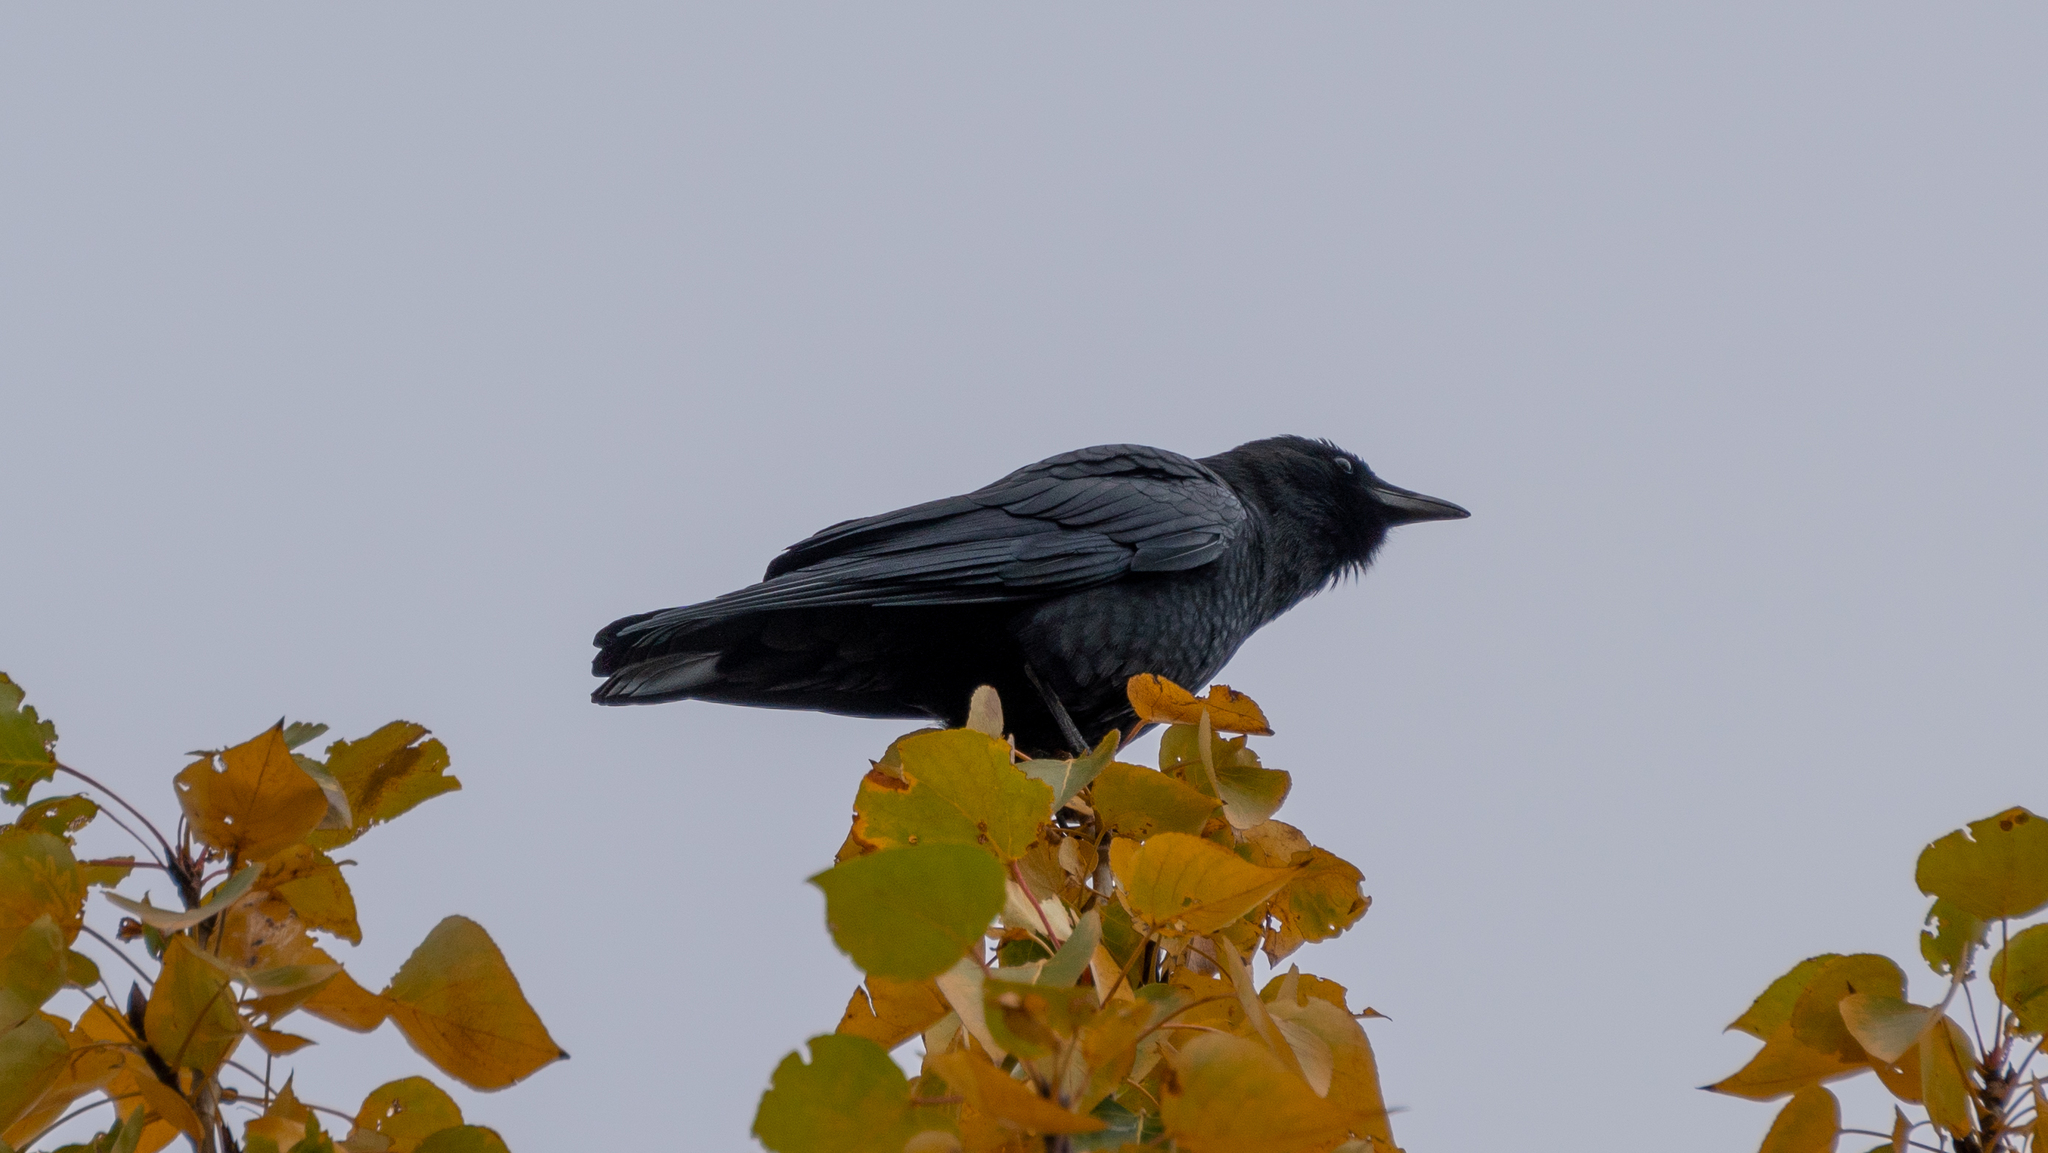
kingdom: Animalia
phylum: Chordata
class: Aves
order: Passeriformes
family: Corvidae
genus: Corvus
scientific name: Corvus brachyrhynchos
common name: American crow
